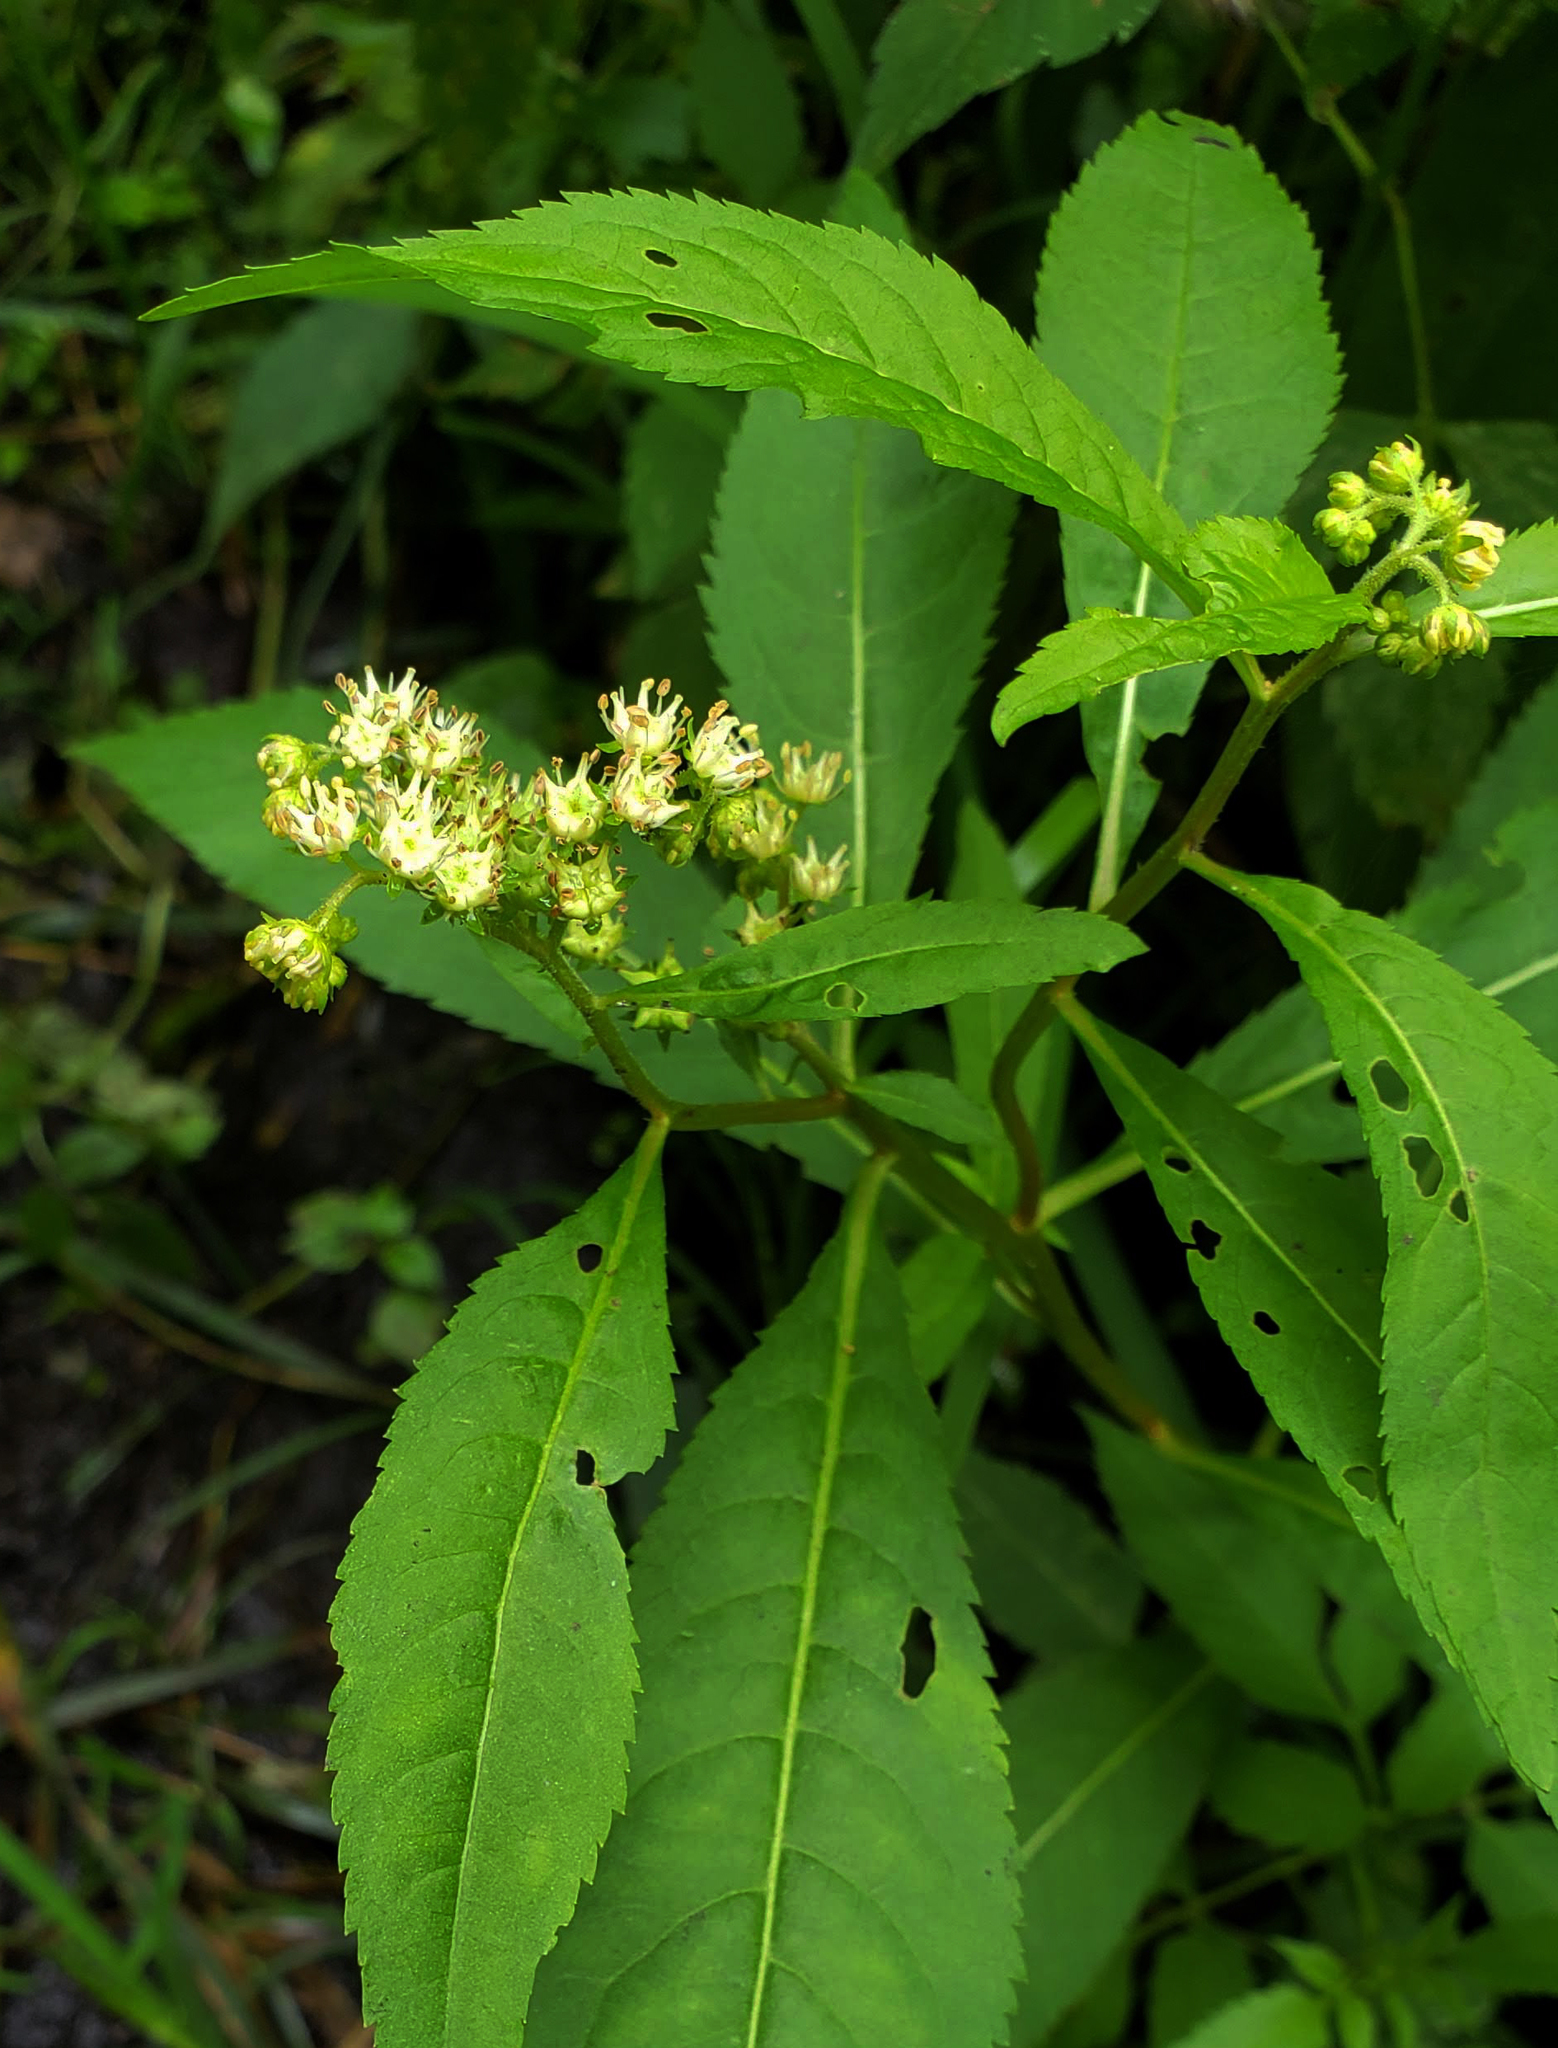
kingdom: Plantae
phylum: Tracheophyta
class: Magnoliopsida
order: Saxifragales
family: Penthoraceae
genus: Penthorum
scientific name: Penthorum sedoides
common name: Ditch stonecrop
